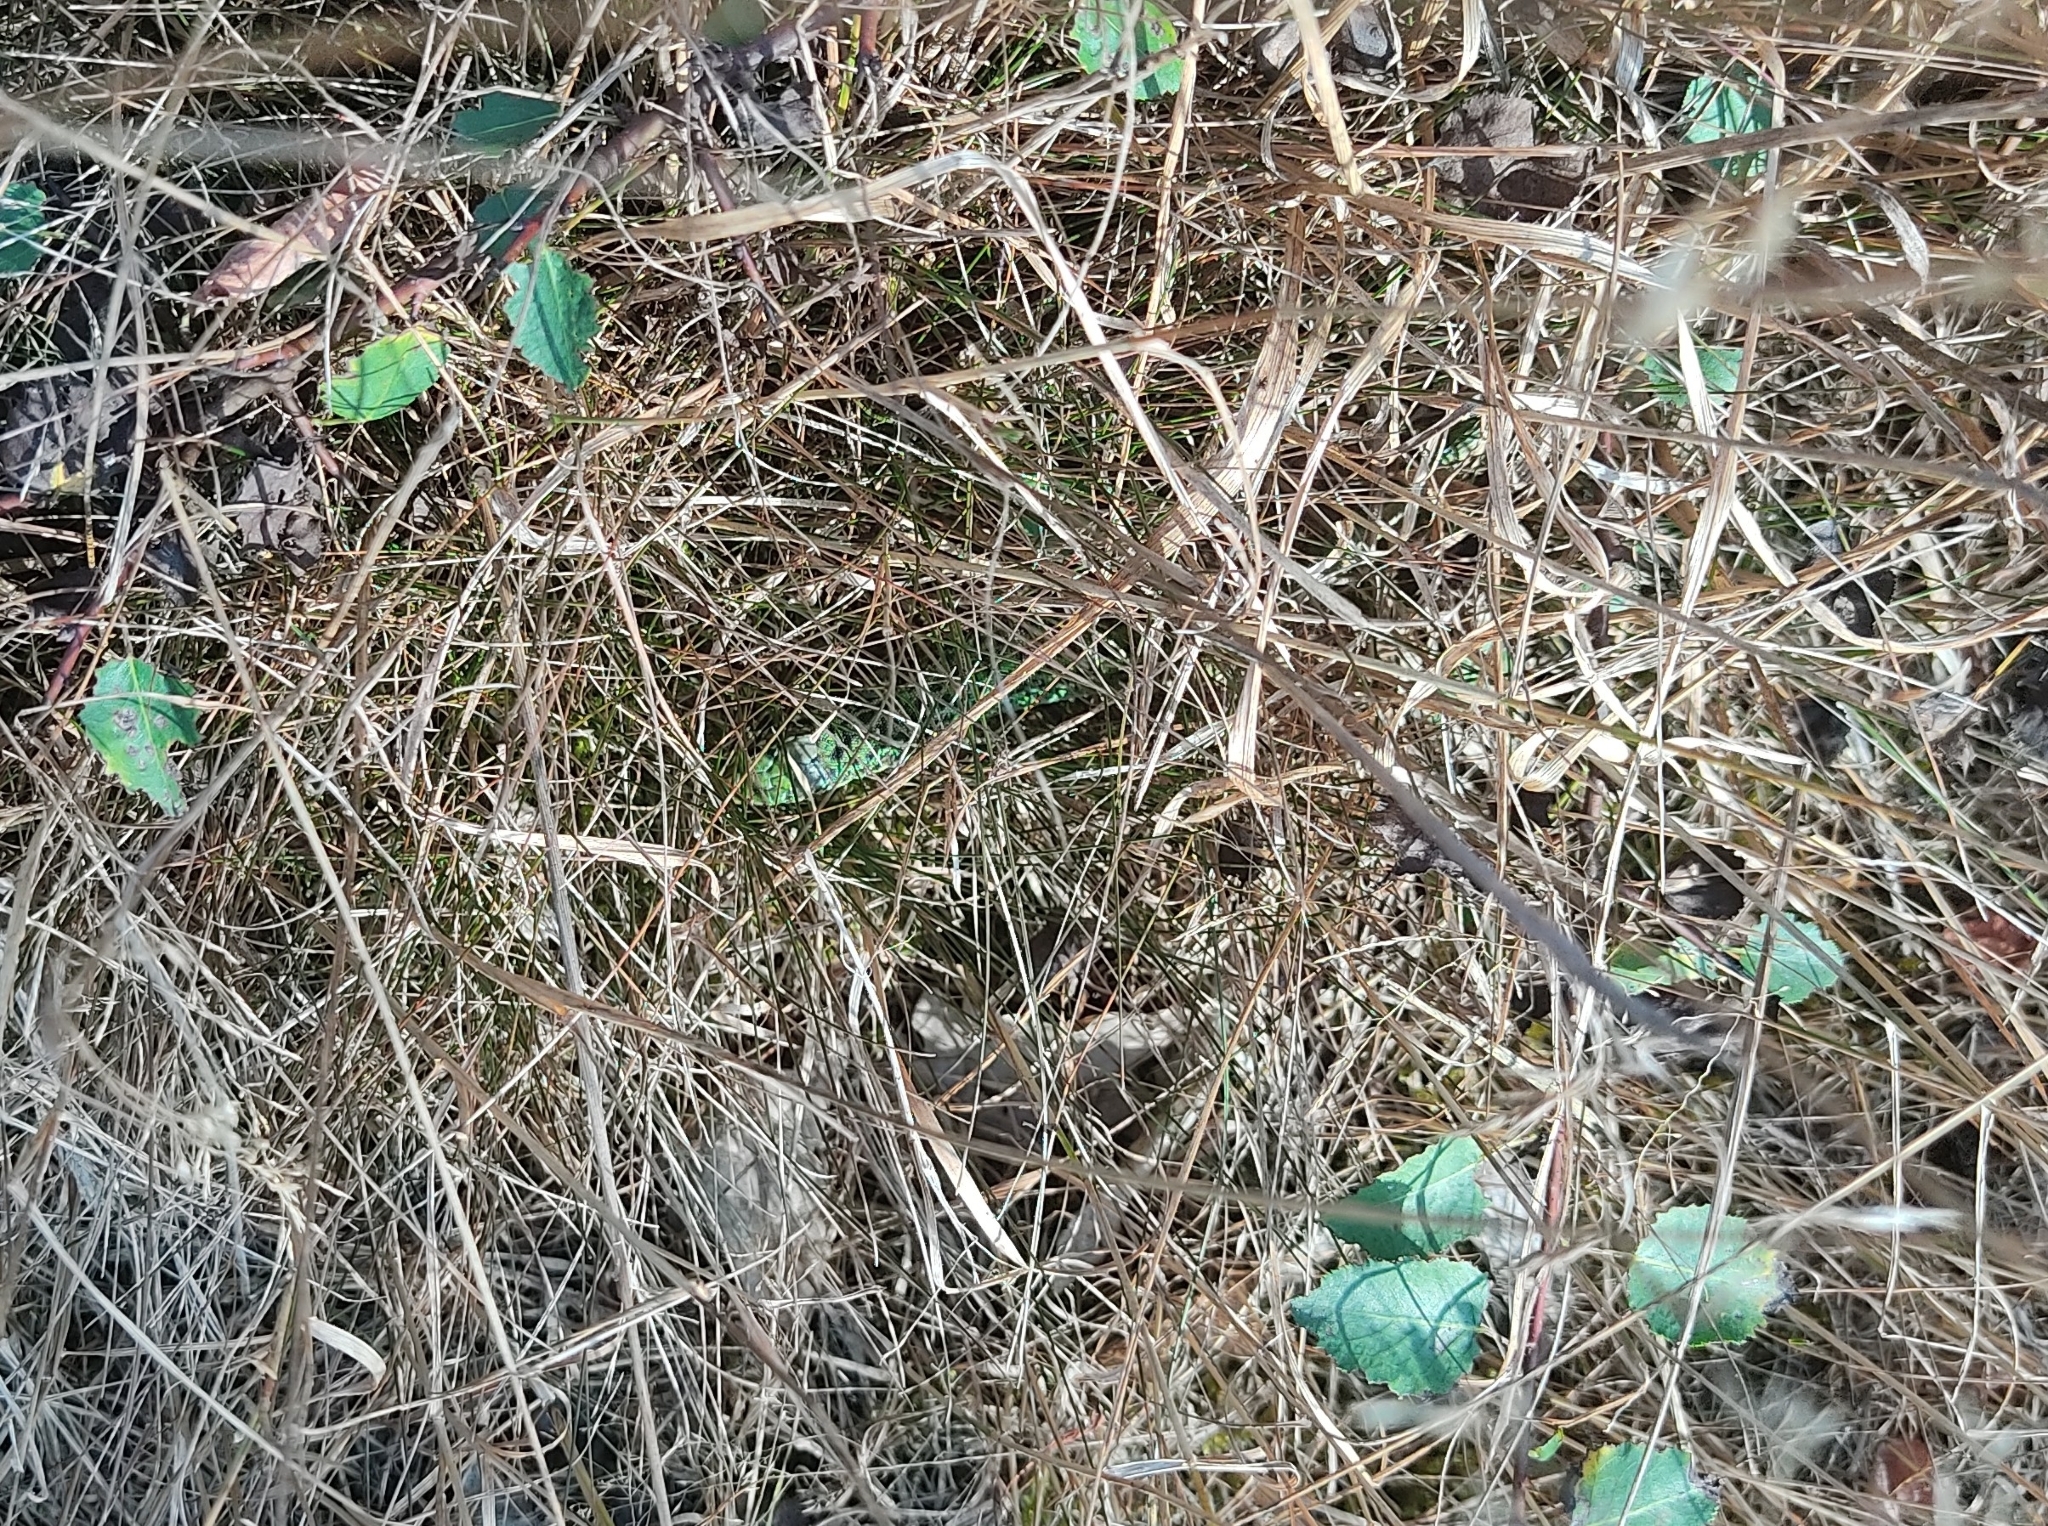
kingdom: Animalia
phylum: Chordata
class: Squamata
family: Lacertidae
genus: Lacerta
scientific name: Lacerta bilineata
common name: Western green lizard
